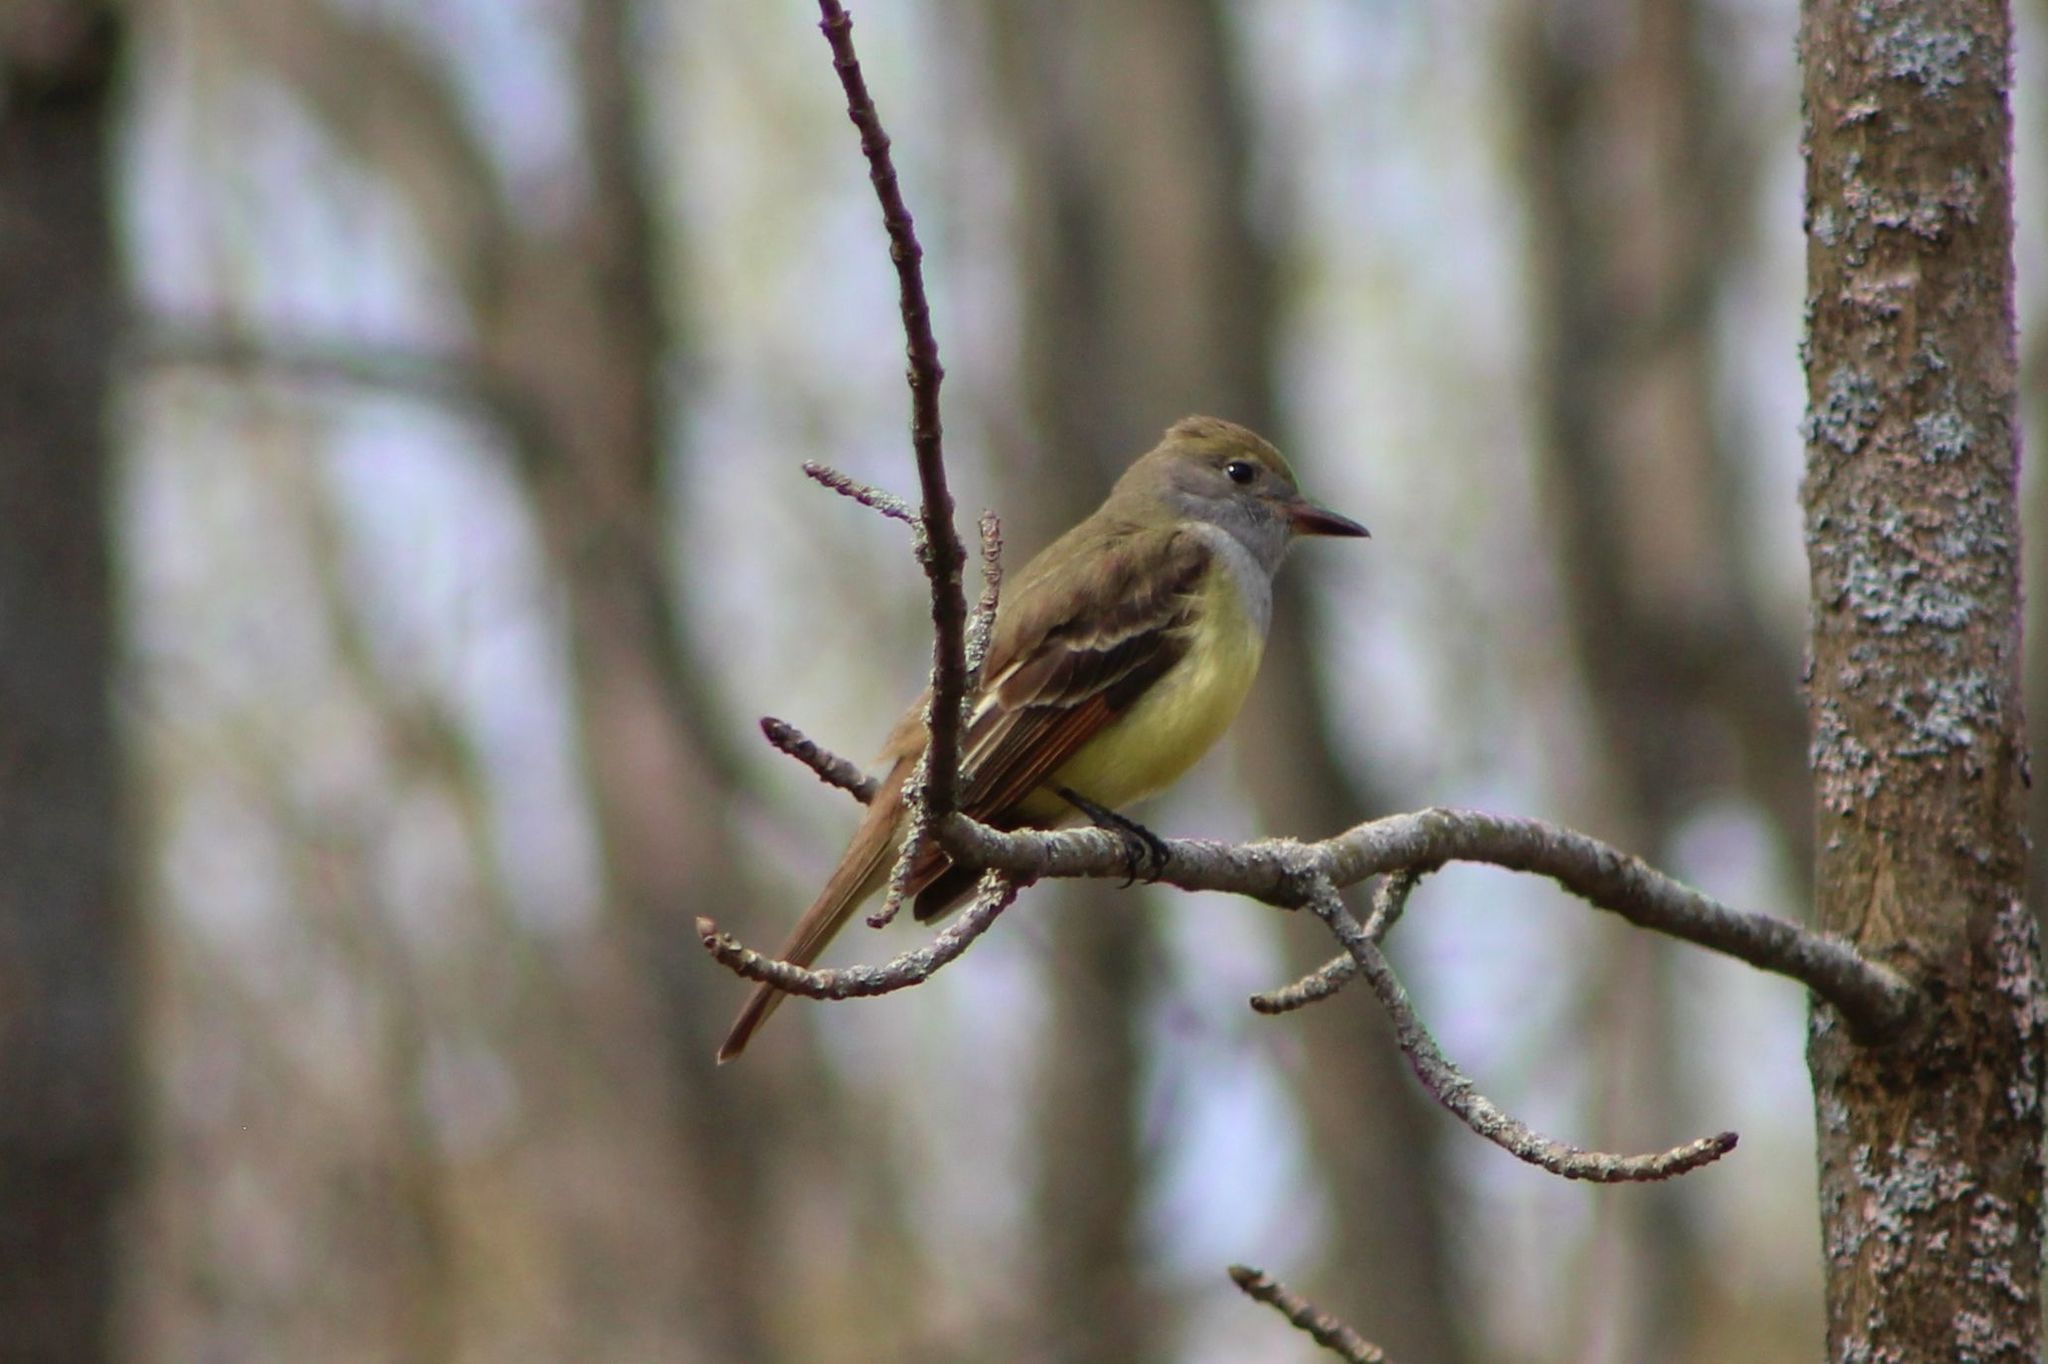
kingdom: Animalia
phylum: Chordata
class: Aves
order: Passeriformes
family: Tyrannidae
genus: Myiarchus
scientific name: Myiarchus crinitus
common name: Great crested flycatcher
